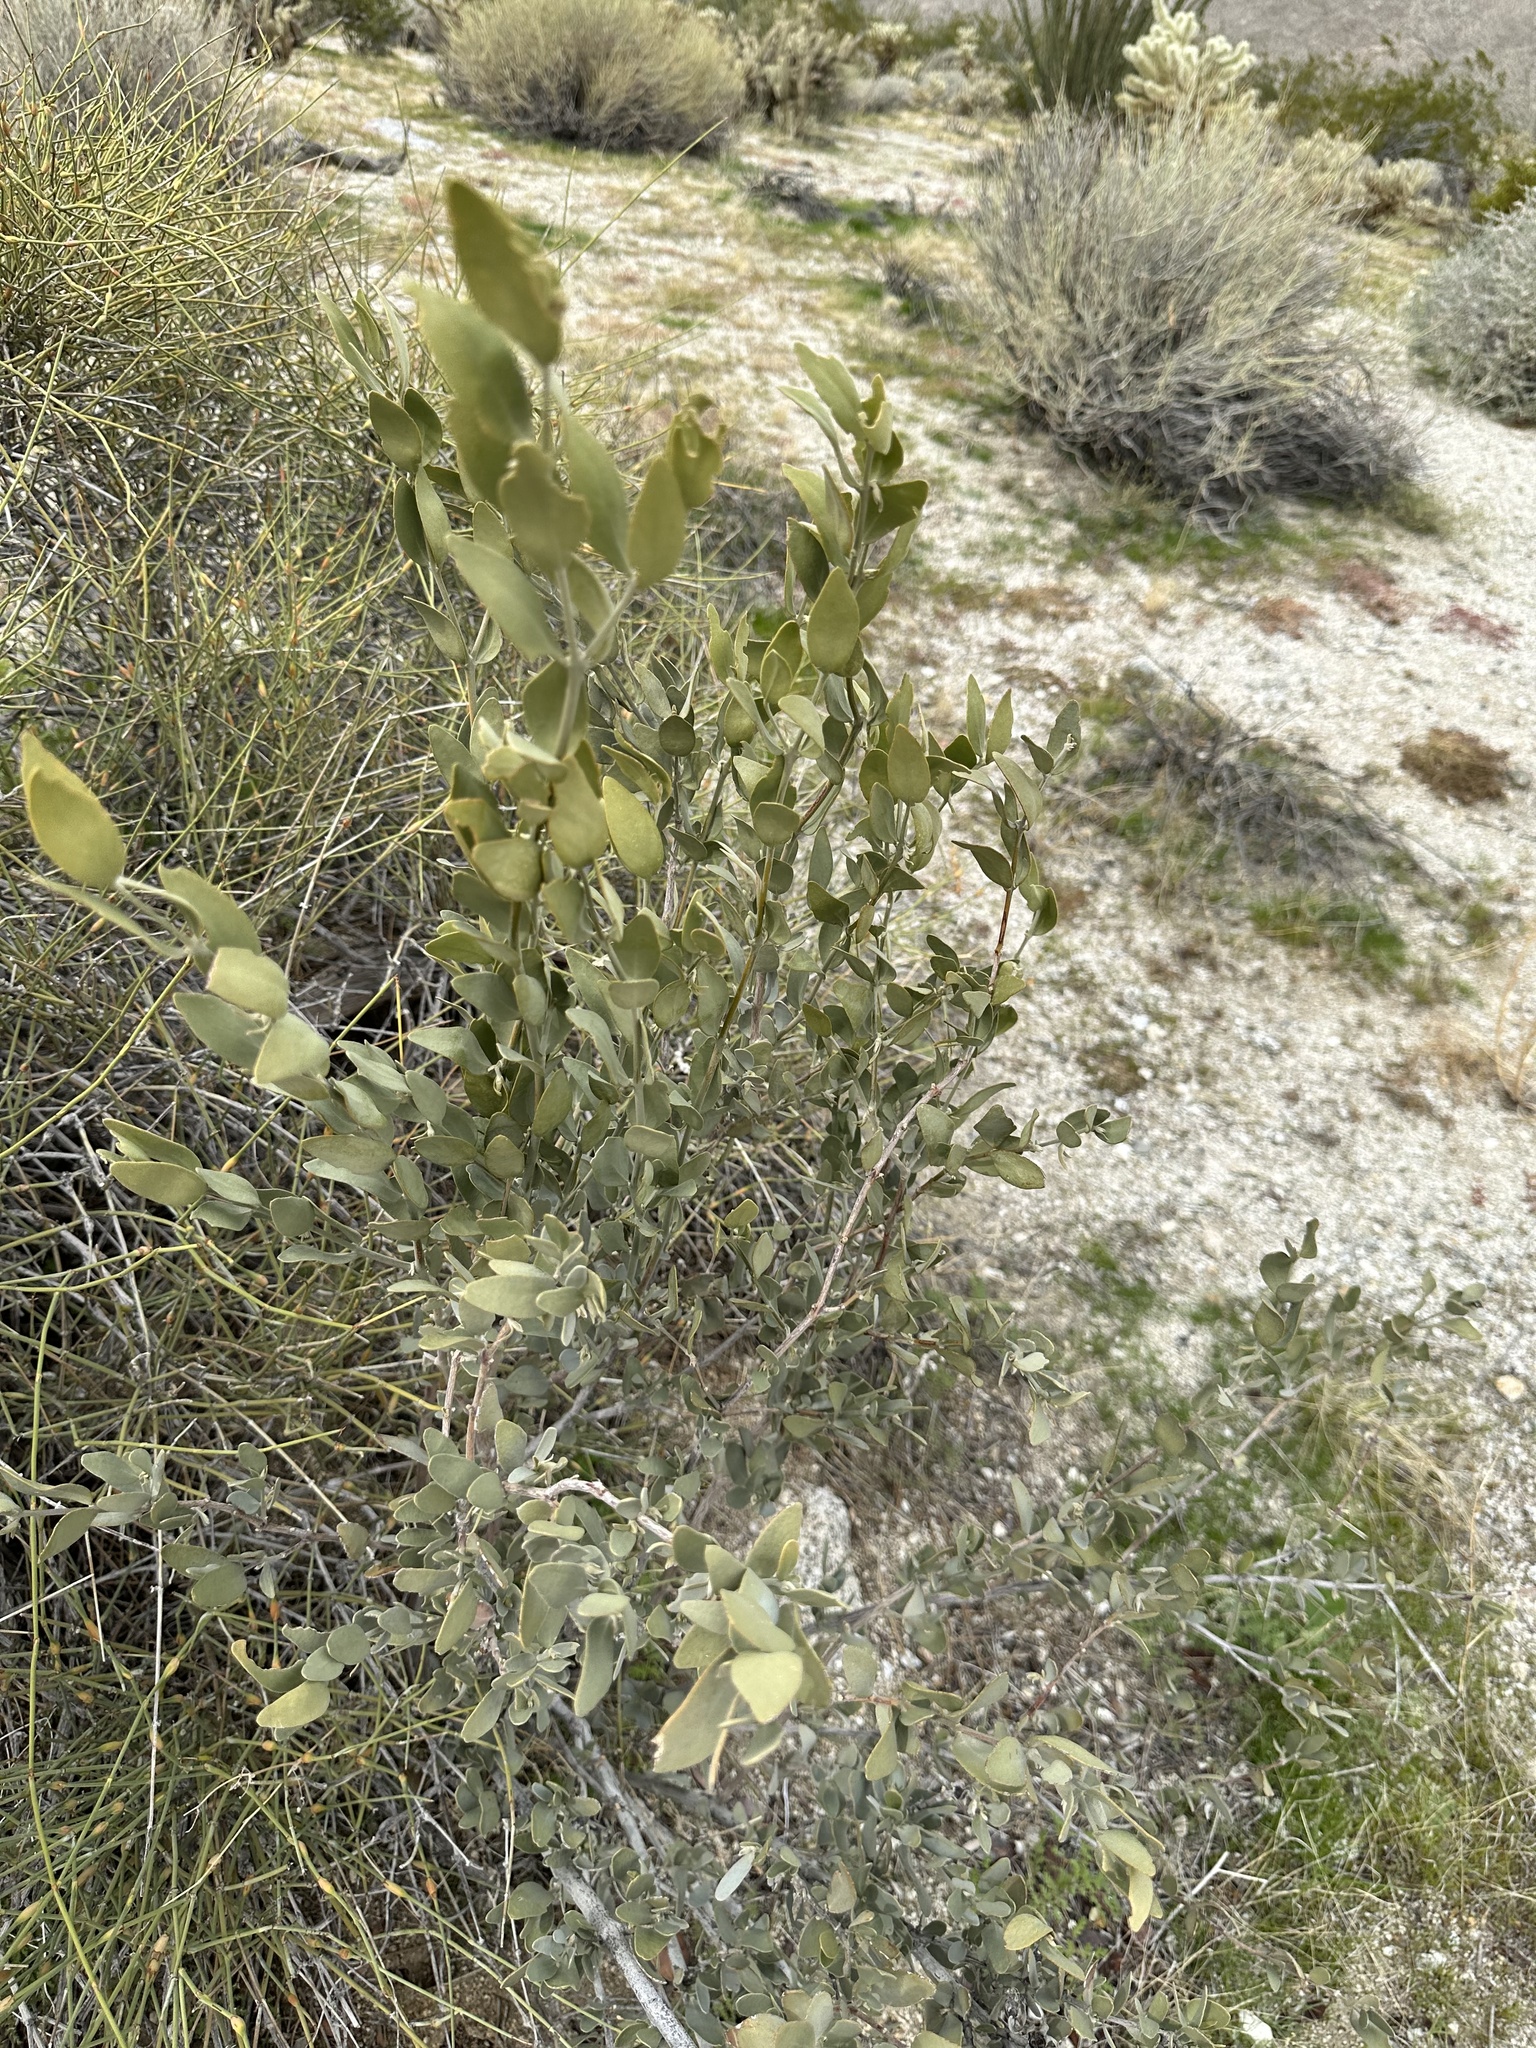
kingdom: Plantae
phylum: Tracheophyta
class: Magnoliopsida
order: Caryophyllales
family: Simmondsiaceae
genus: Simmondsia
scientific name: Simmondsia chinensis
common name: Jojoba
